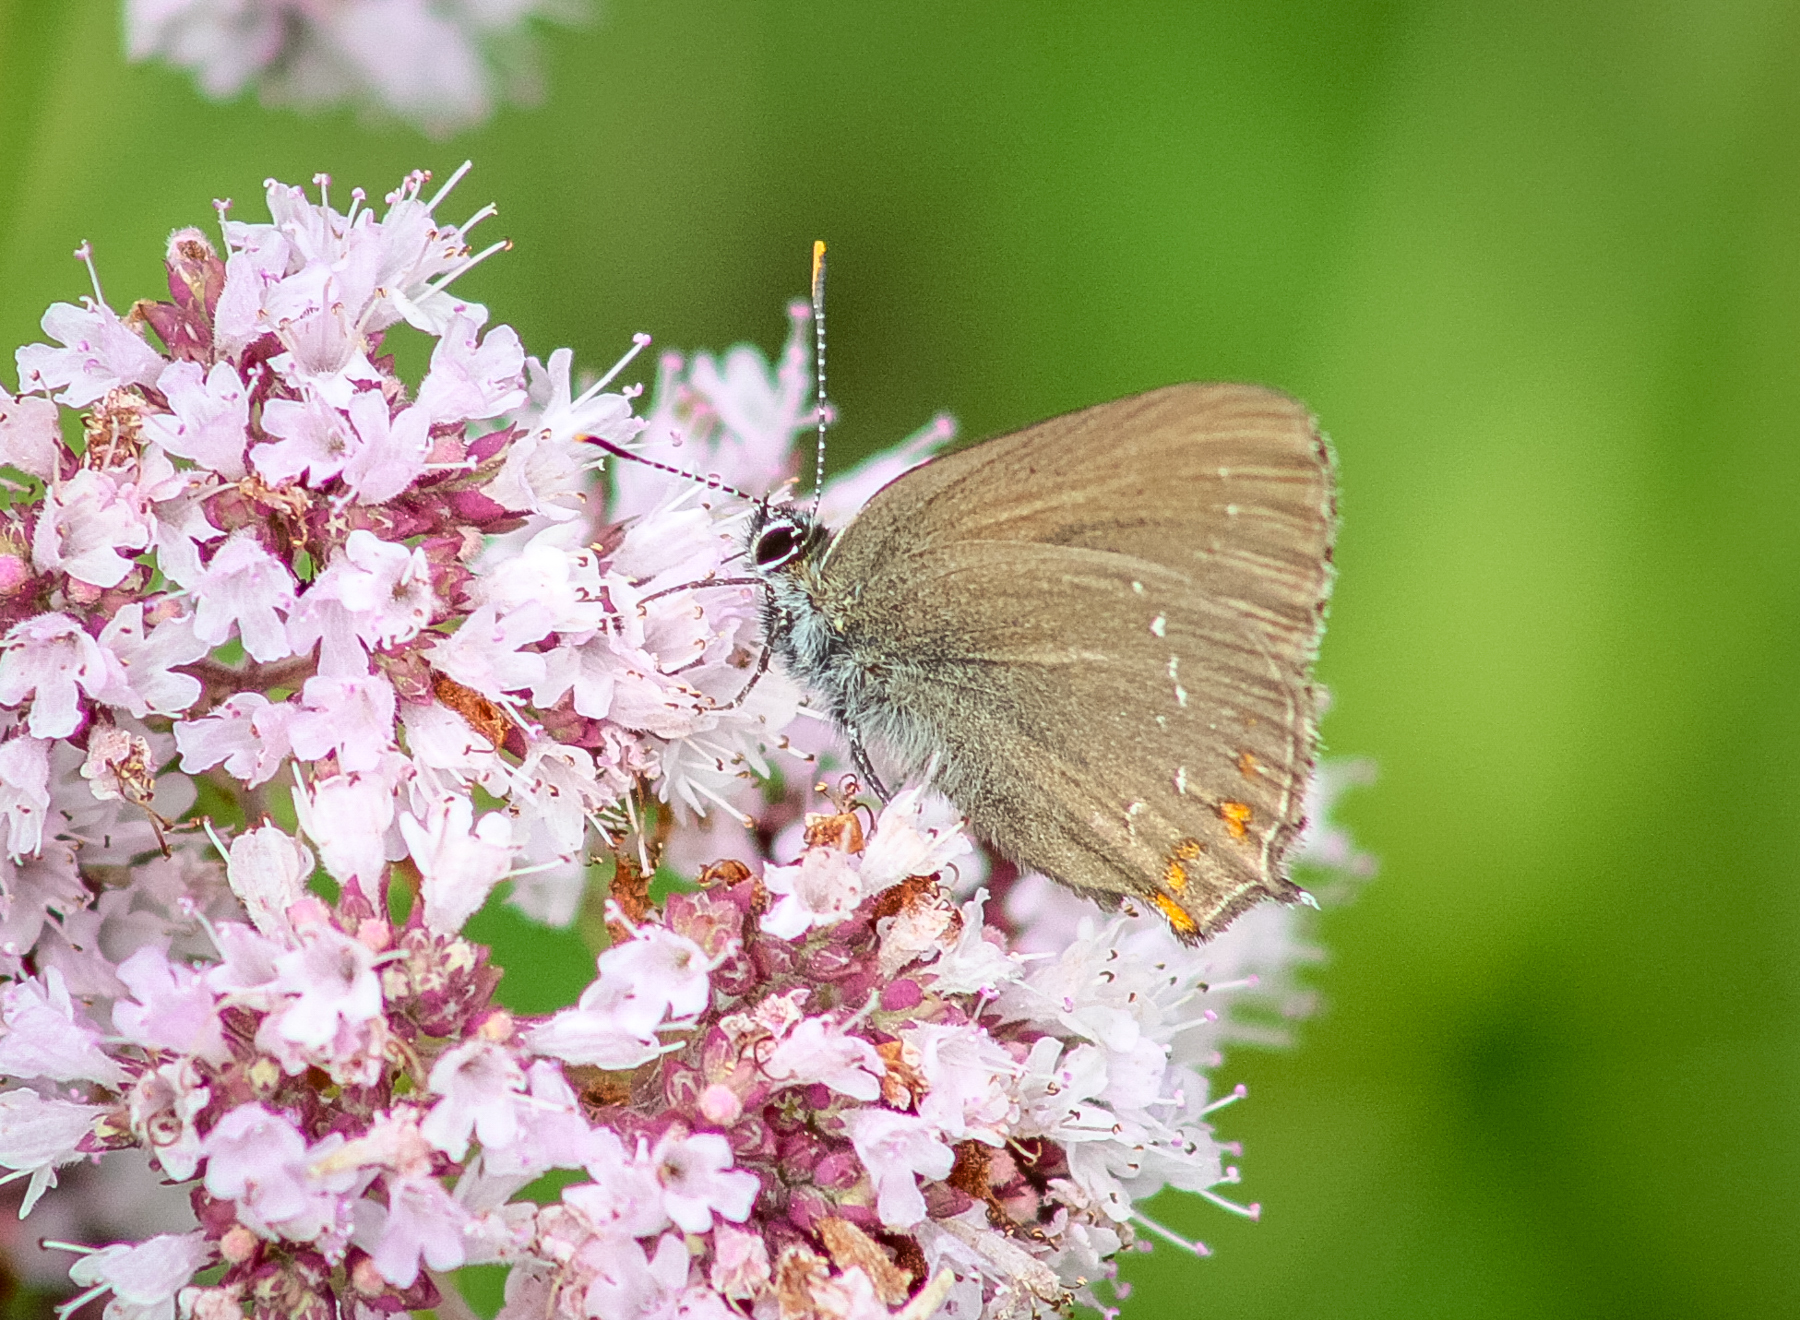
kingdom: Animalia
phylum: Arthropoda
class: Insecta
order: Lepidoptera
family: Lycaenidae
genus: Nordmannia
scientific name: Nordmannia ilicis
